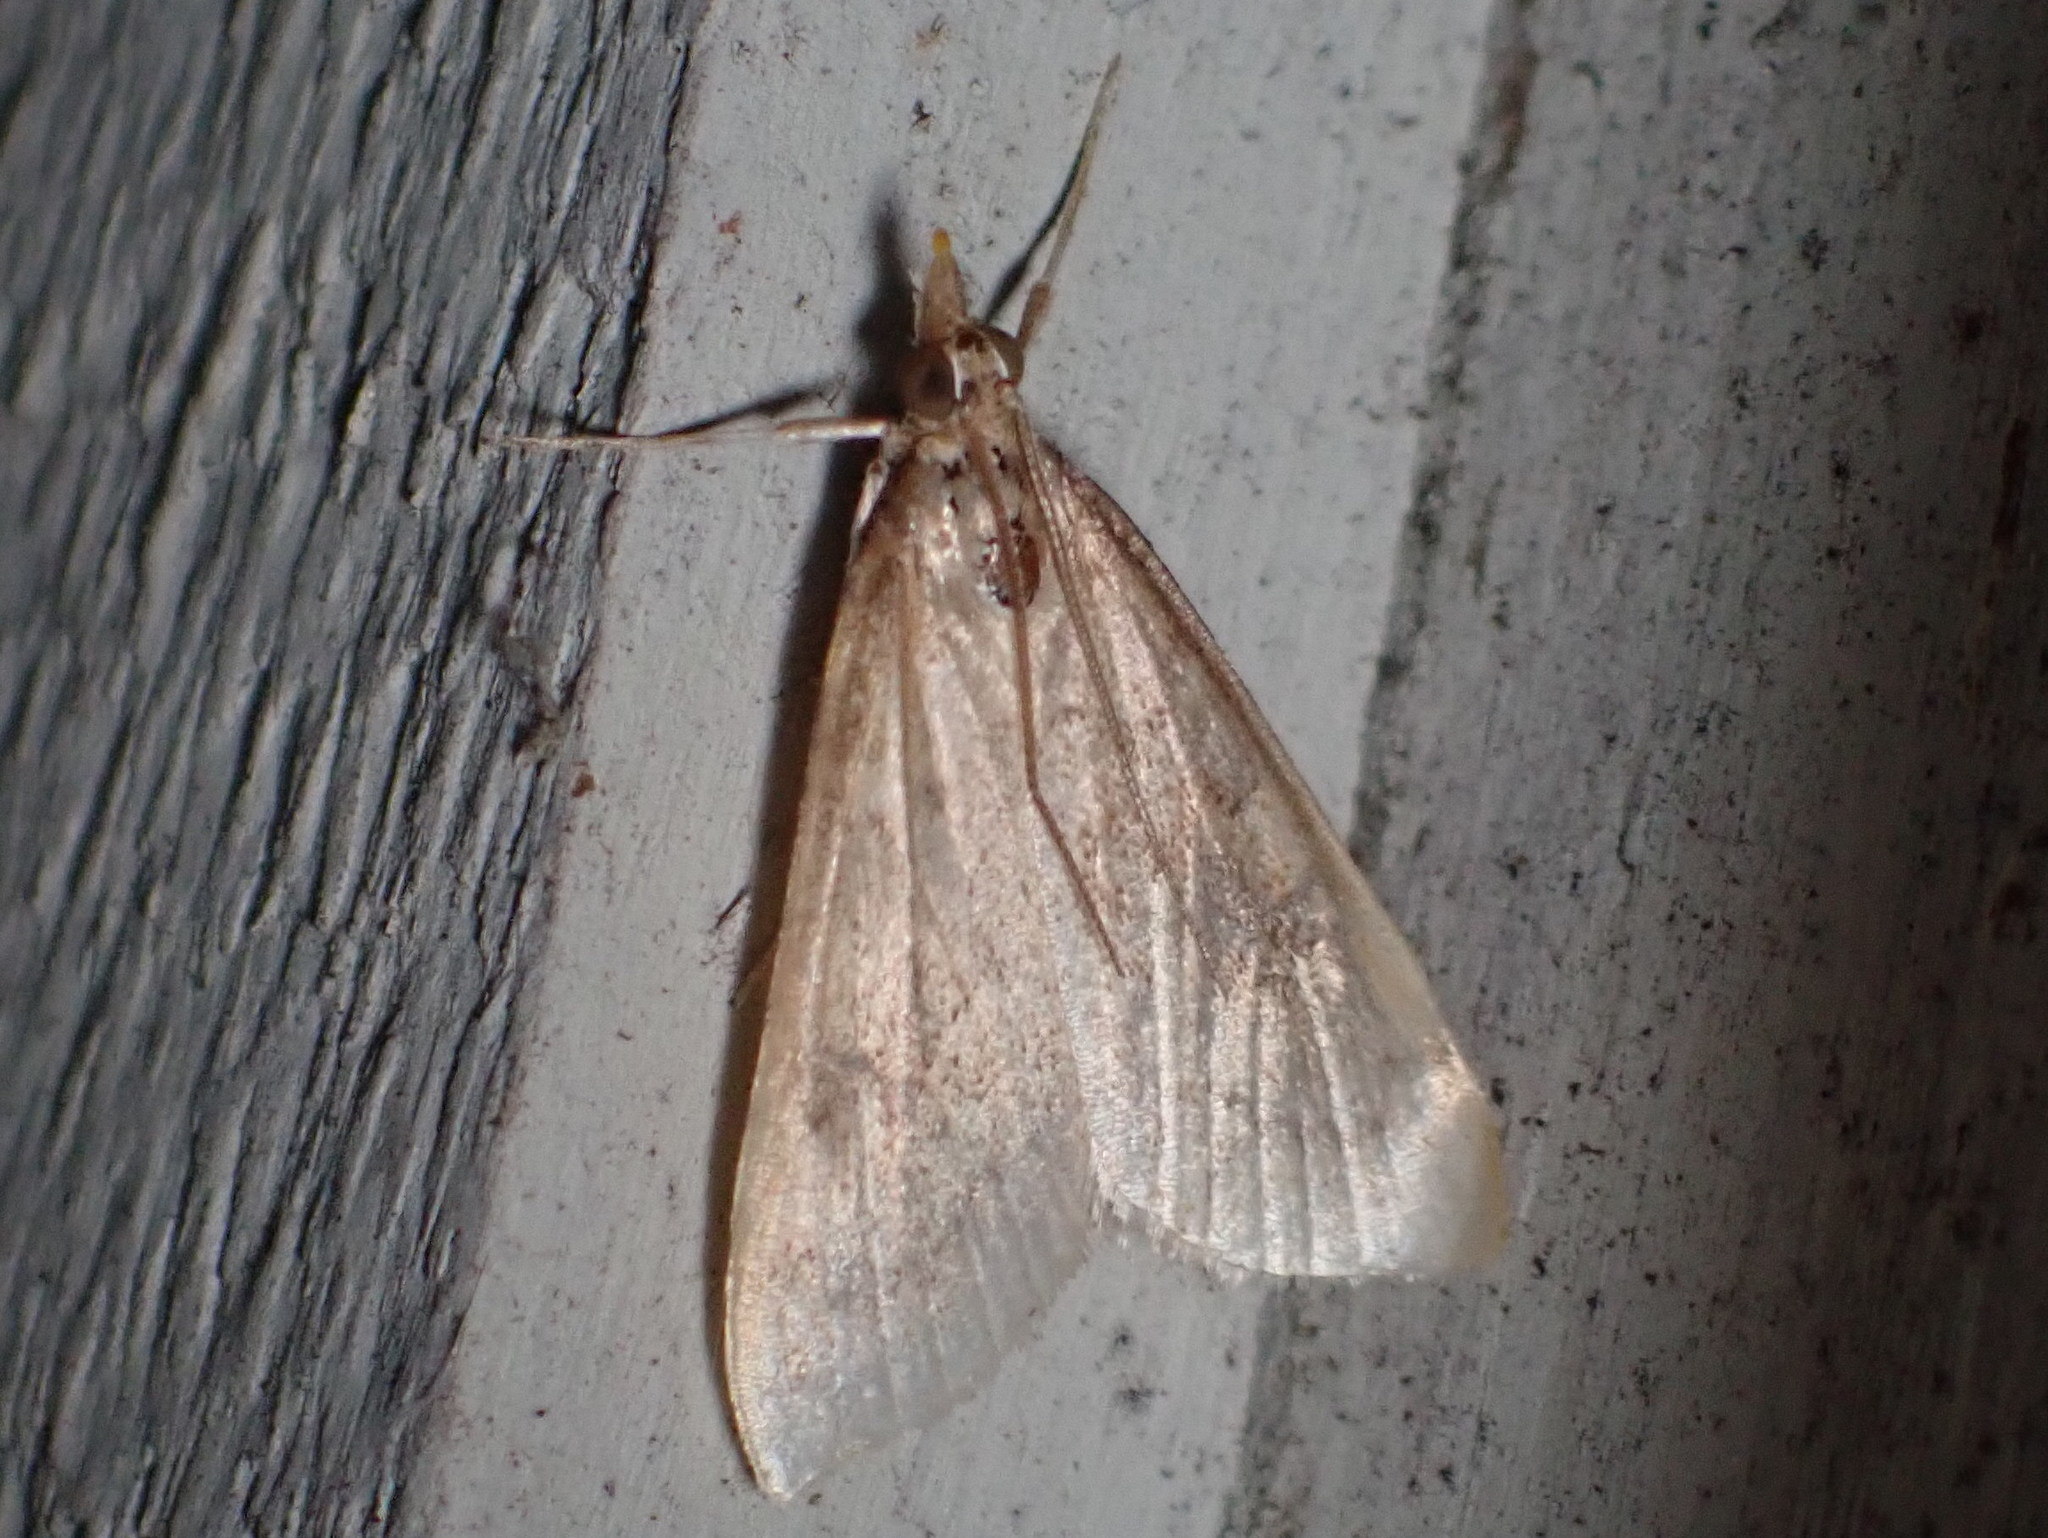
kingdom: Animalia
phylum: Arthropoda
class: Insecta
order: Lepidoptera
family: Crambidae
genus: Udea
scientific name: Udea rubigalis
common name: Celery leaftier moth
